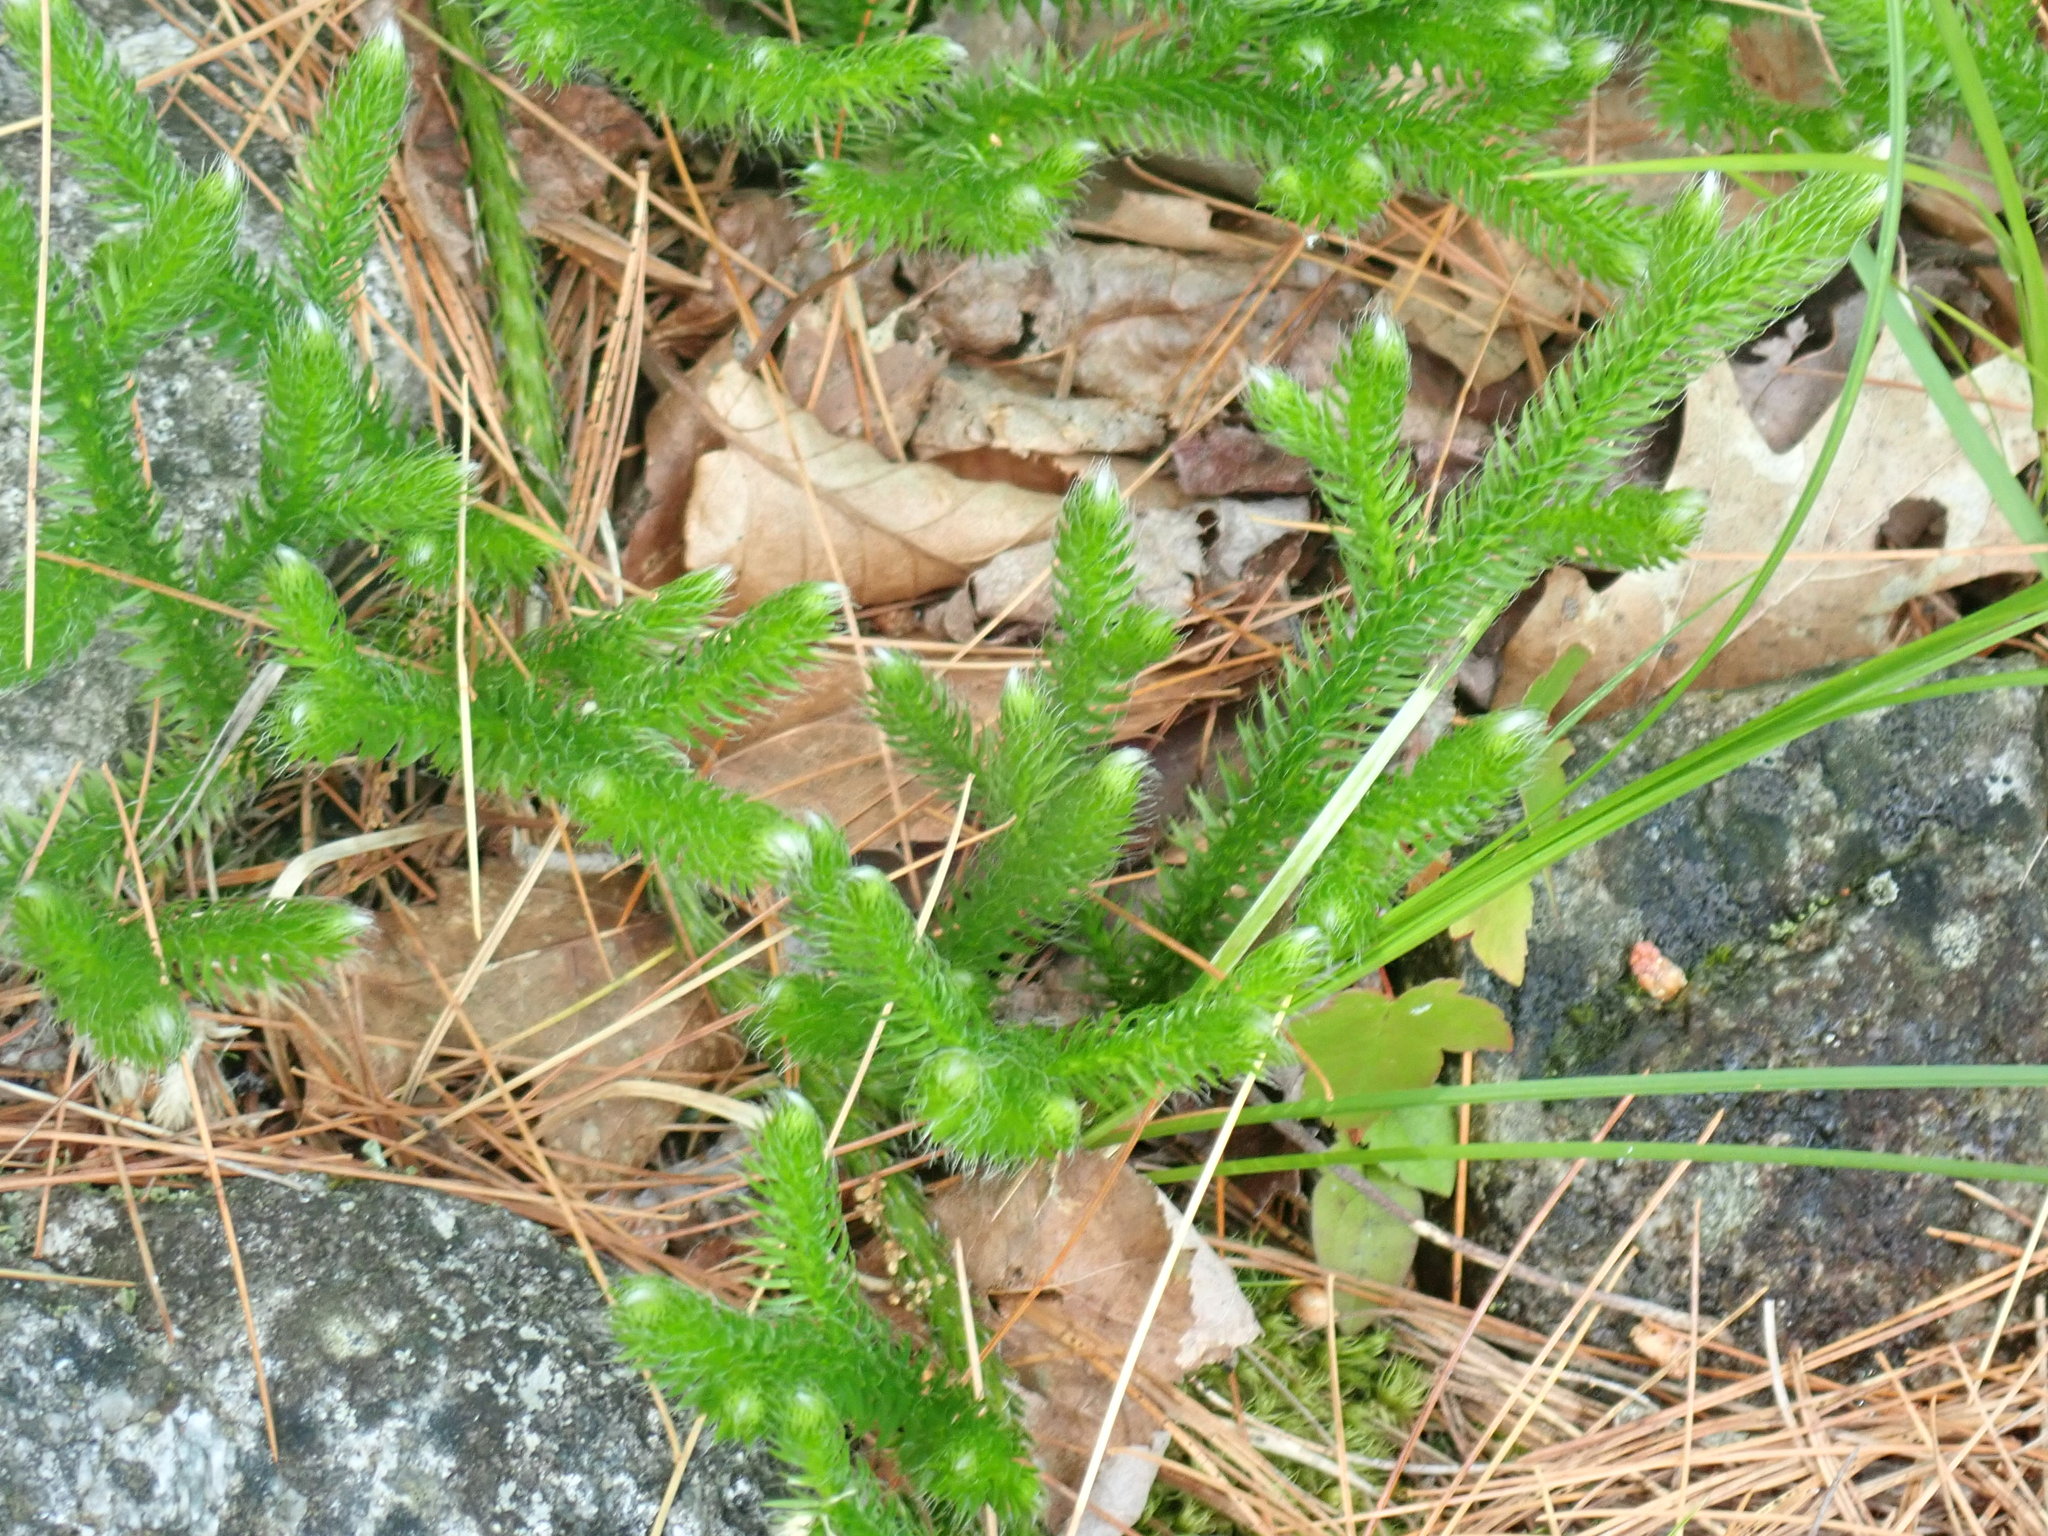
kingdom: Plantae
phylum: Tracheophyta
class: Lycopodiopsida
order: Lycopodiales
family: Lycopodiaceae
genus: Lycopodium
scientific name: Lycopodium clavatum
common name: Stag's-horn clubmoss
